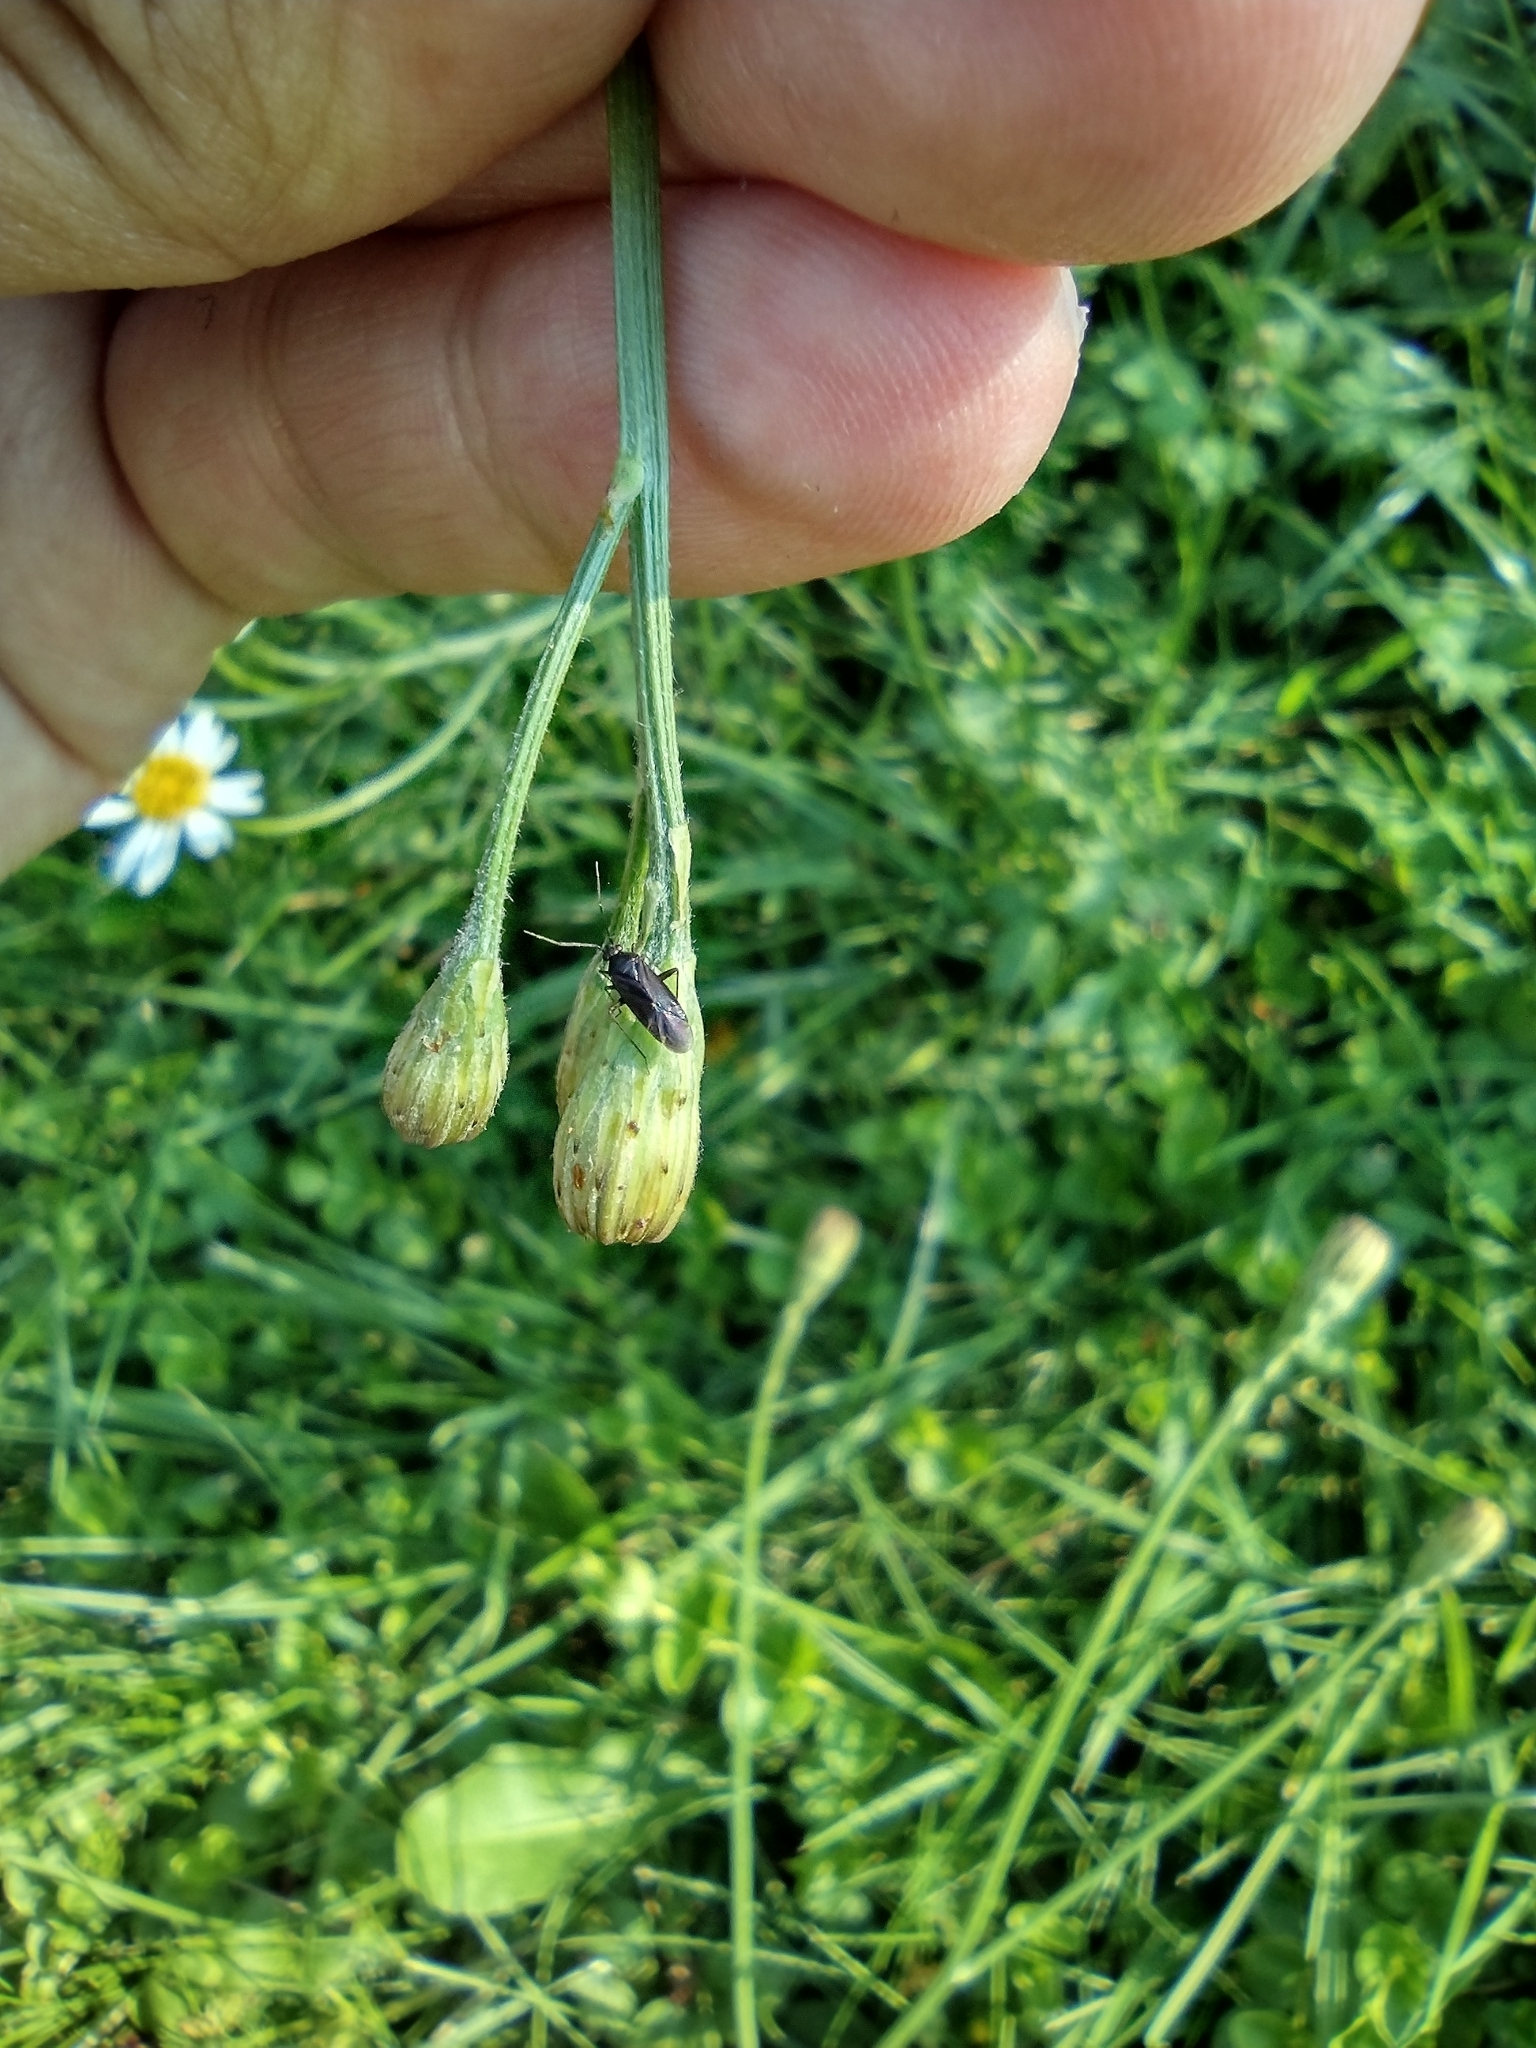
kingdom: Animalia
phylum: Arthropoda
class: Insecta
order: Hemiptera
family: Miridae
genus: Plagiognathus
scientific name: Plagiognathus arbustorum
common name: Plant bug
